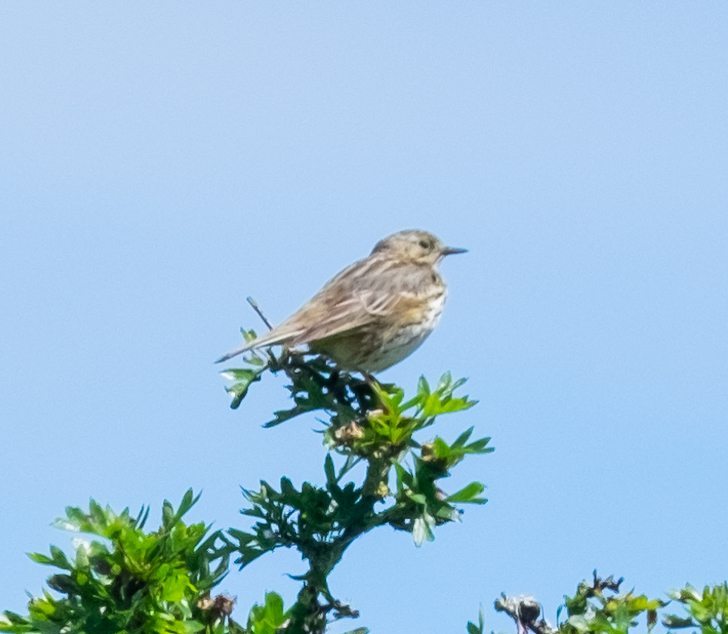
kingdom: Animalia
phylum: Chordata
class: Aves
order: Passeriformes
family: Motacillidae
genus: Anthus
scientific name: Anthus pratensis
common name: Meadow pipit
